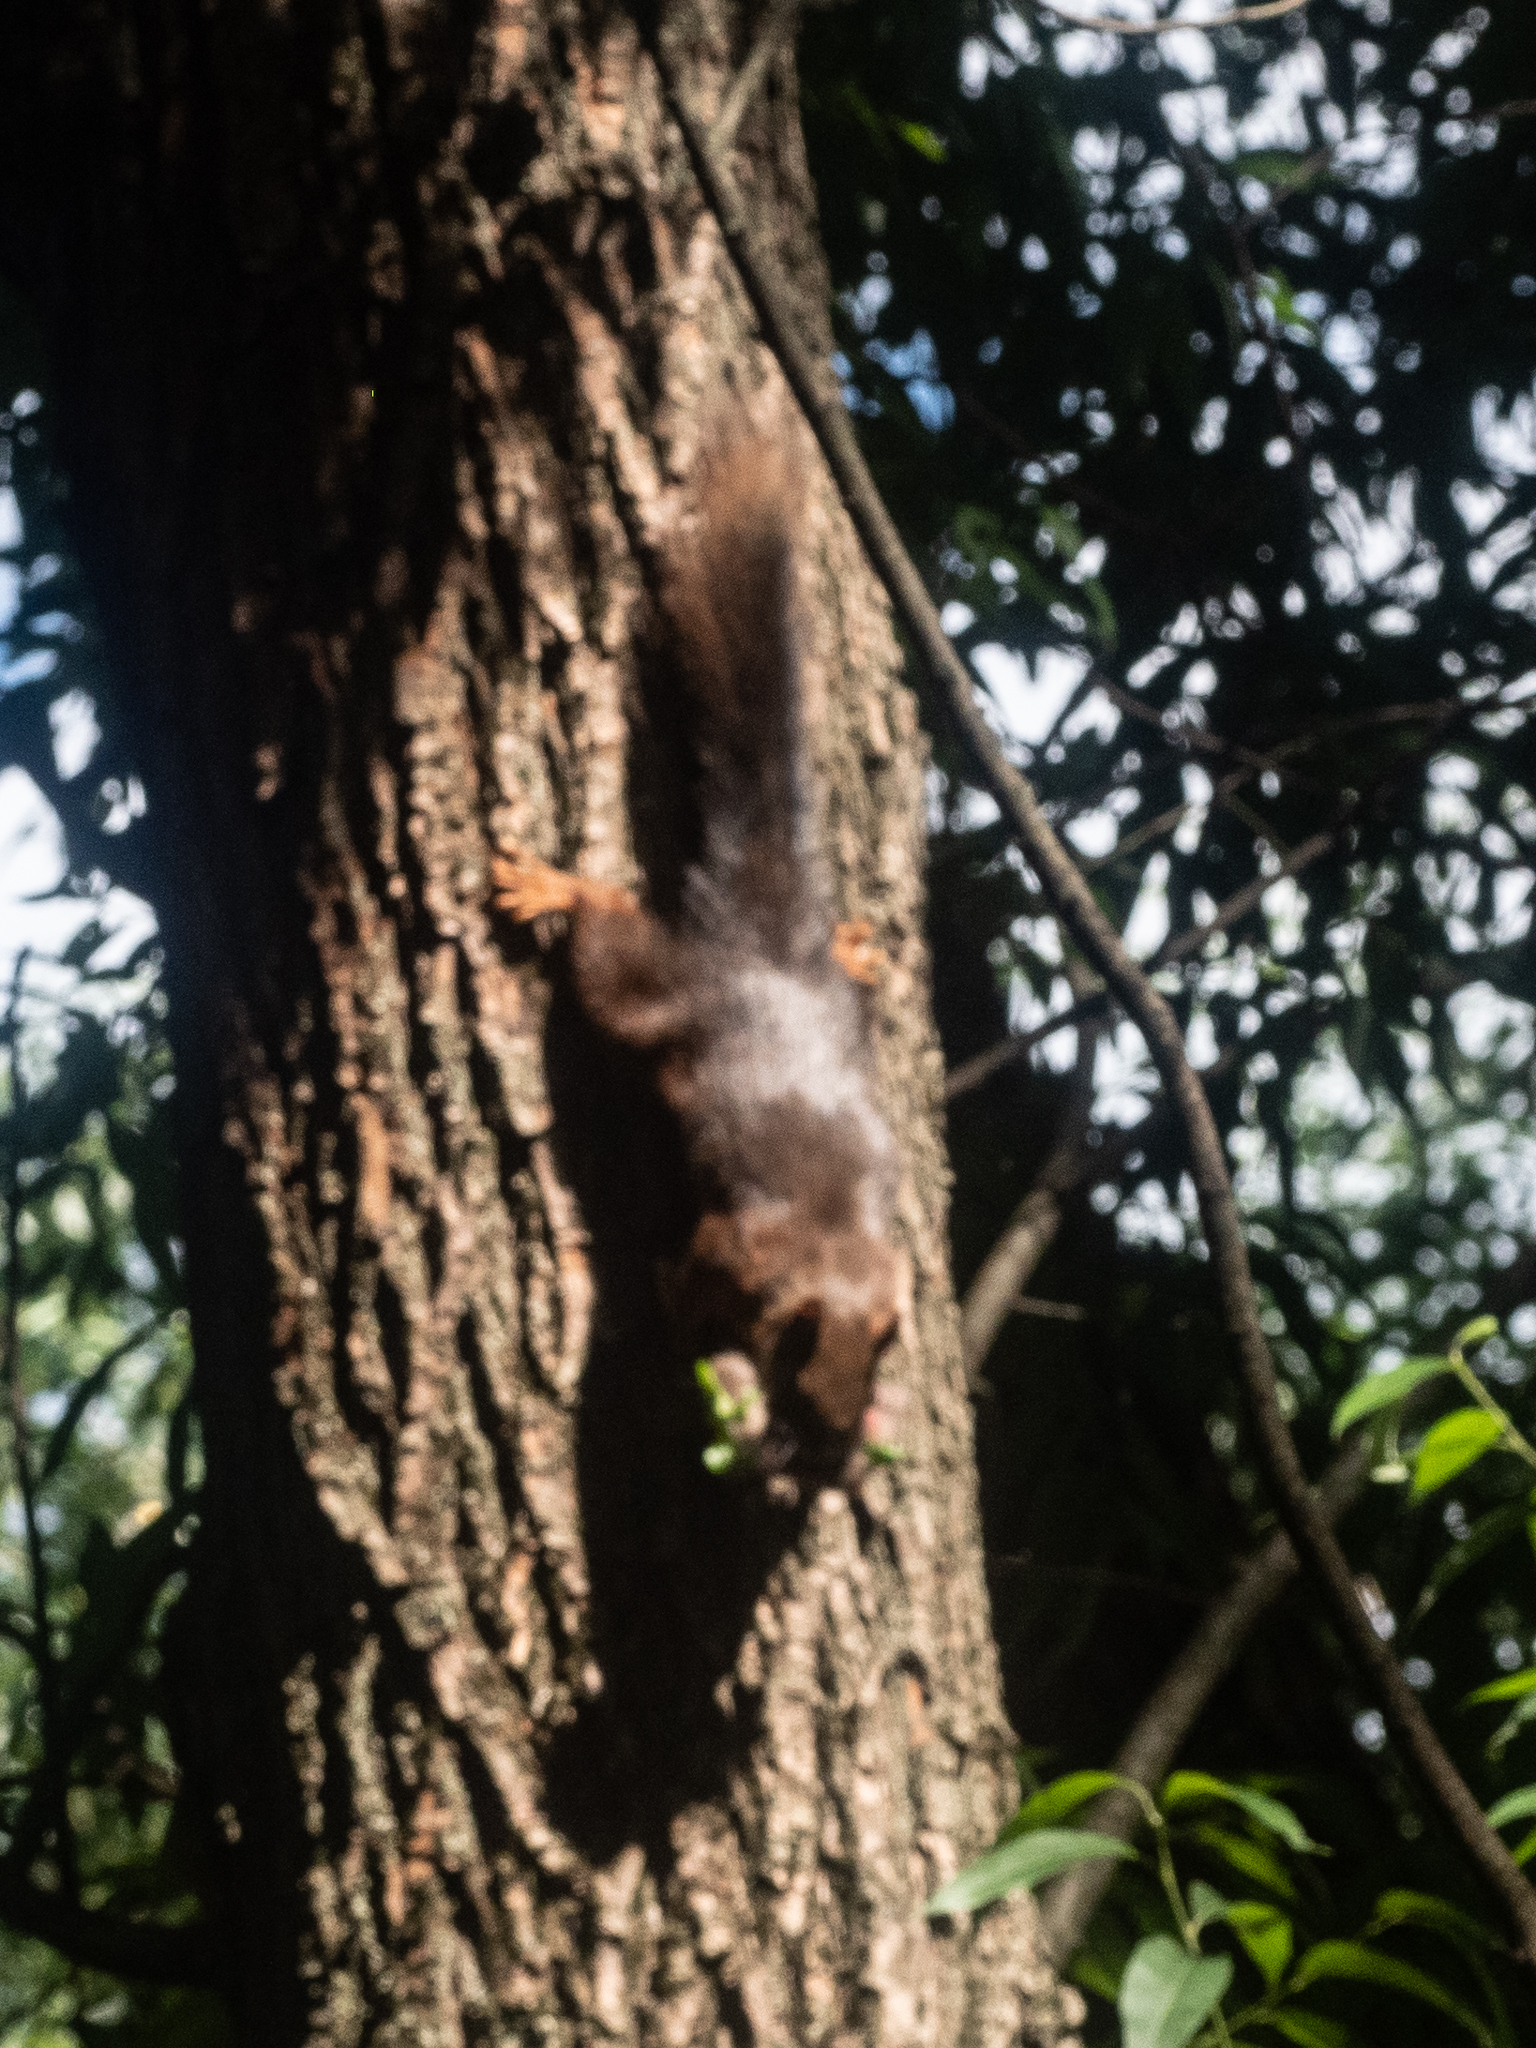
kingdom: Animalia
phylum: Chordata
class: Mammalia
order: Rodentia
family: Sciuridae
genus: Sciurus
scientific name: Sciurus vulgaris
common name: Eurasian red squirrel
